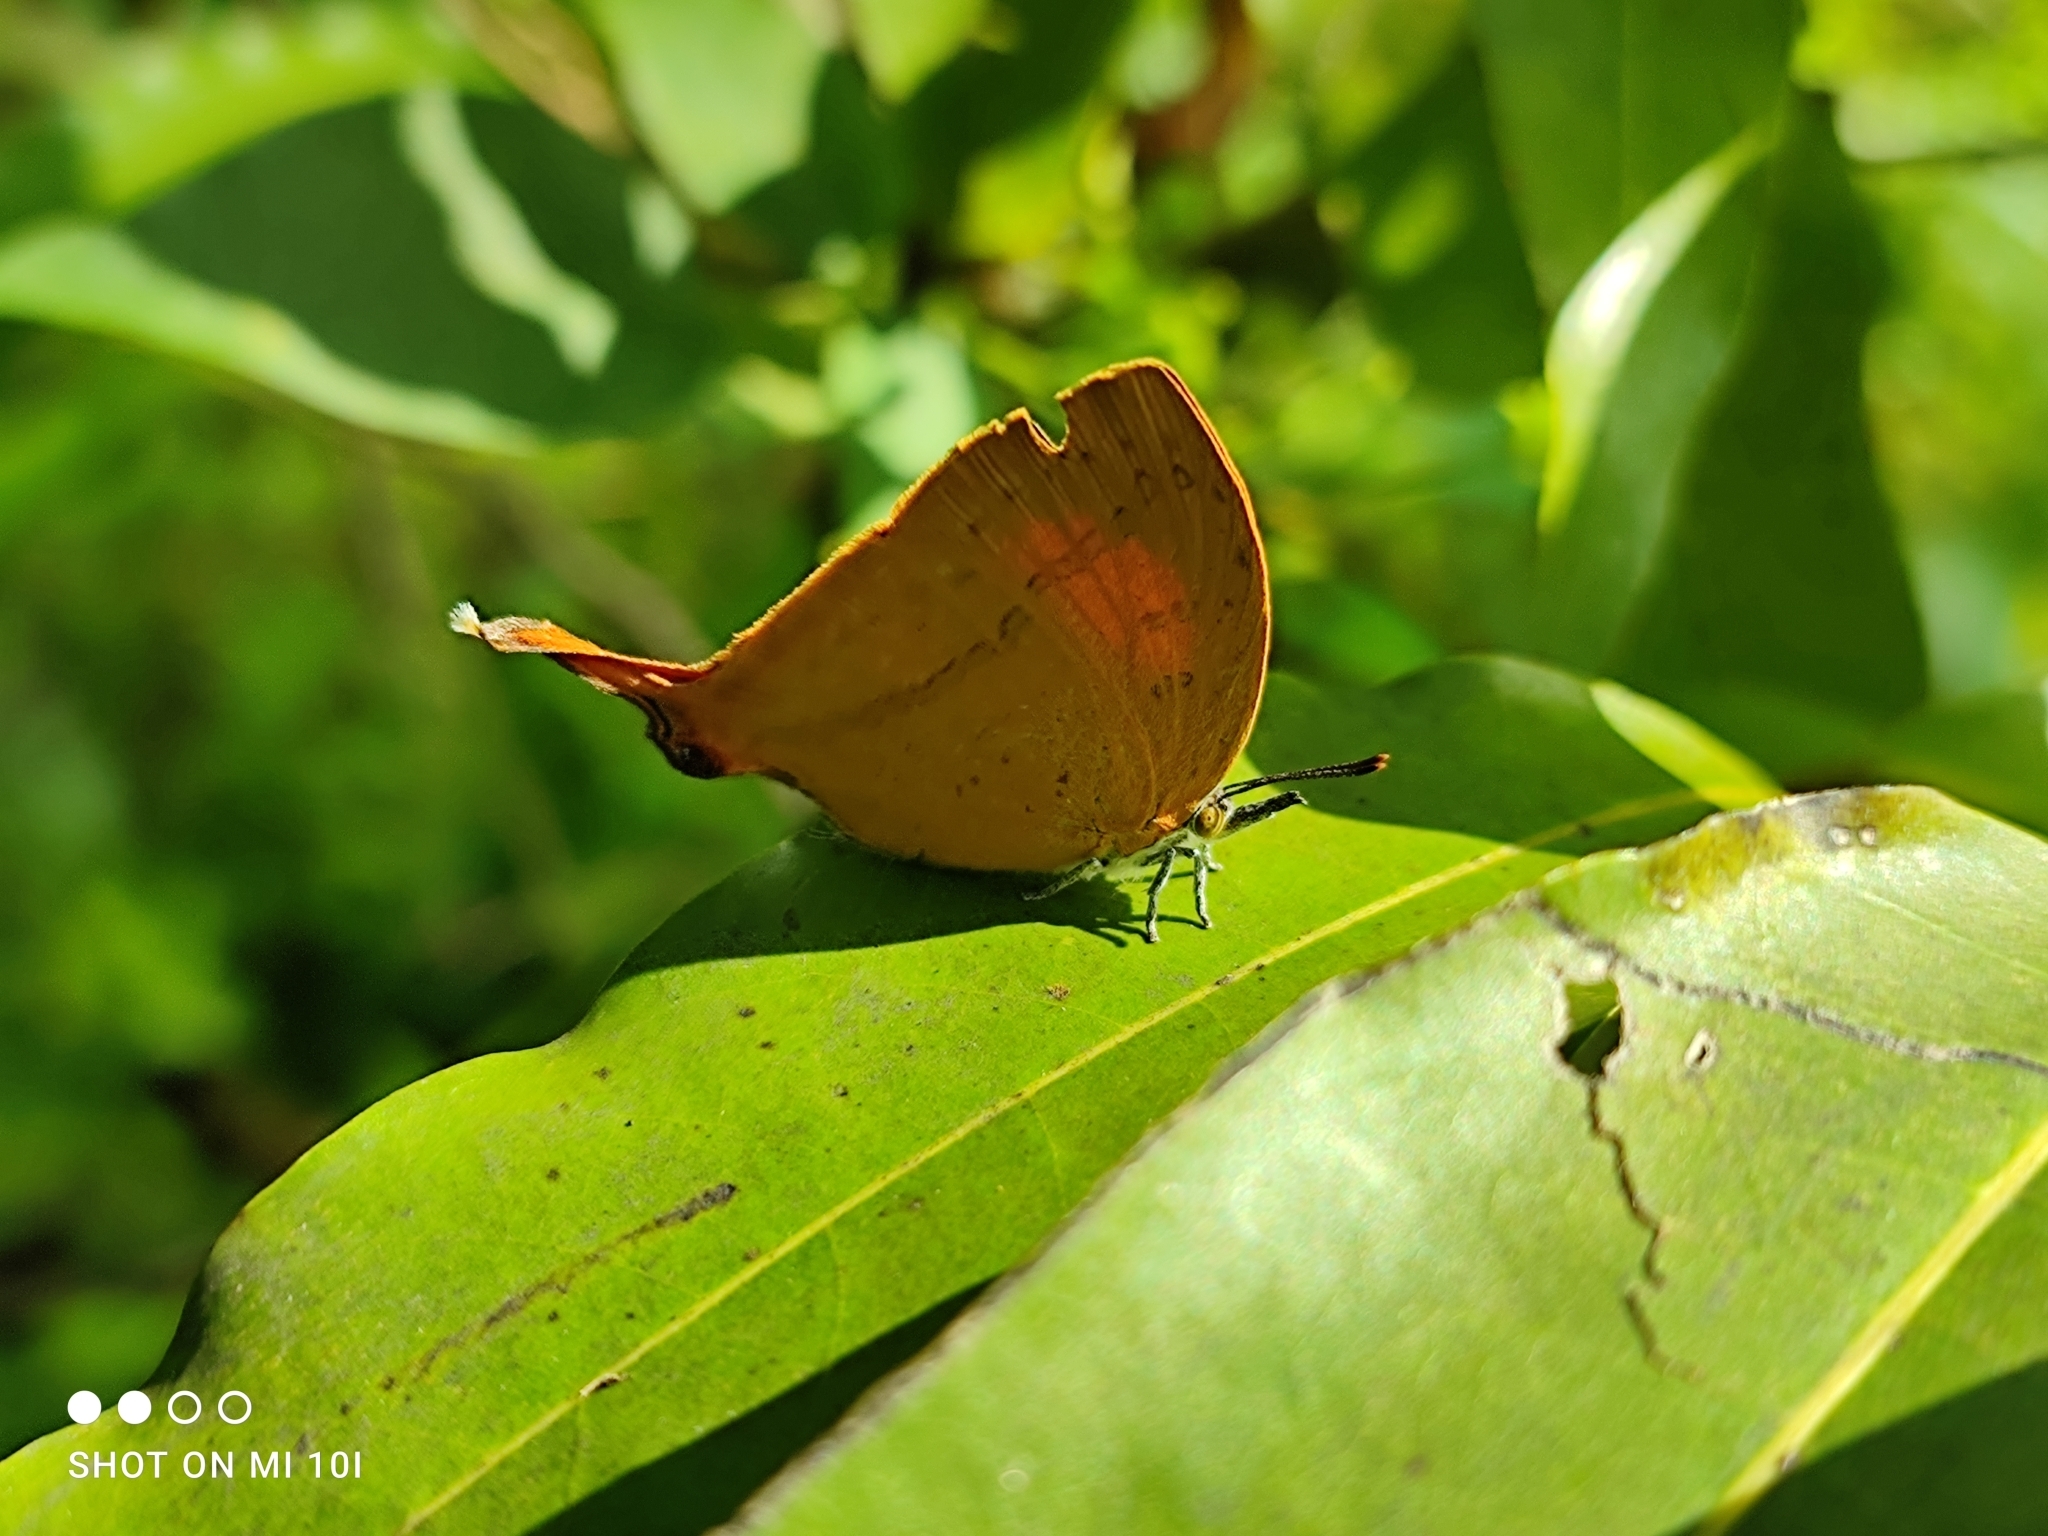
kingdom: Animalia
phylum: Arthropoda
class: Insecta
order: Lepidoptera
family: Lycaenidae
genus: Loxura
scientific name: Loxura atymnus
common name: Common yamfly
